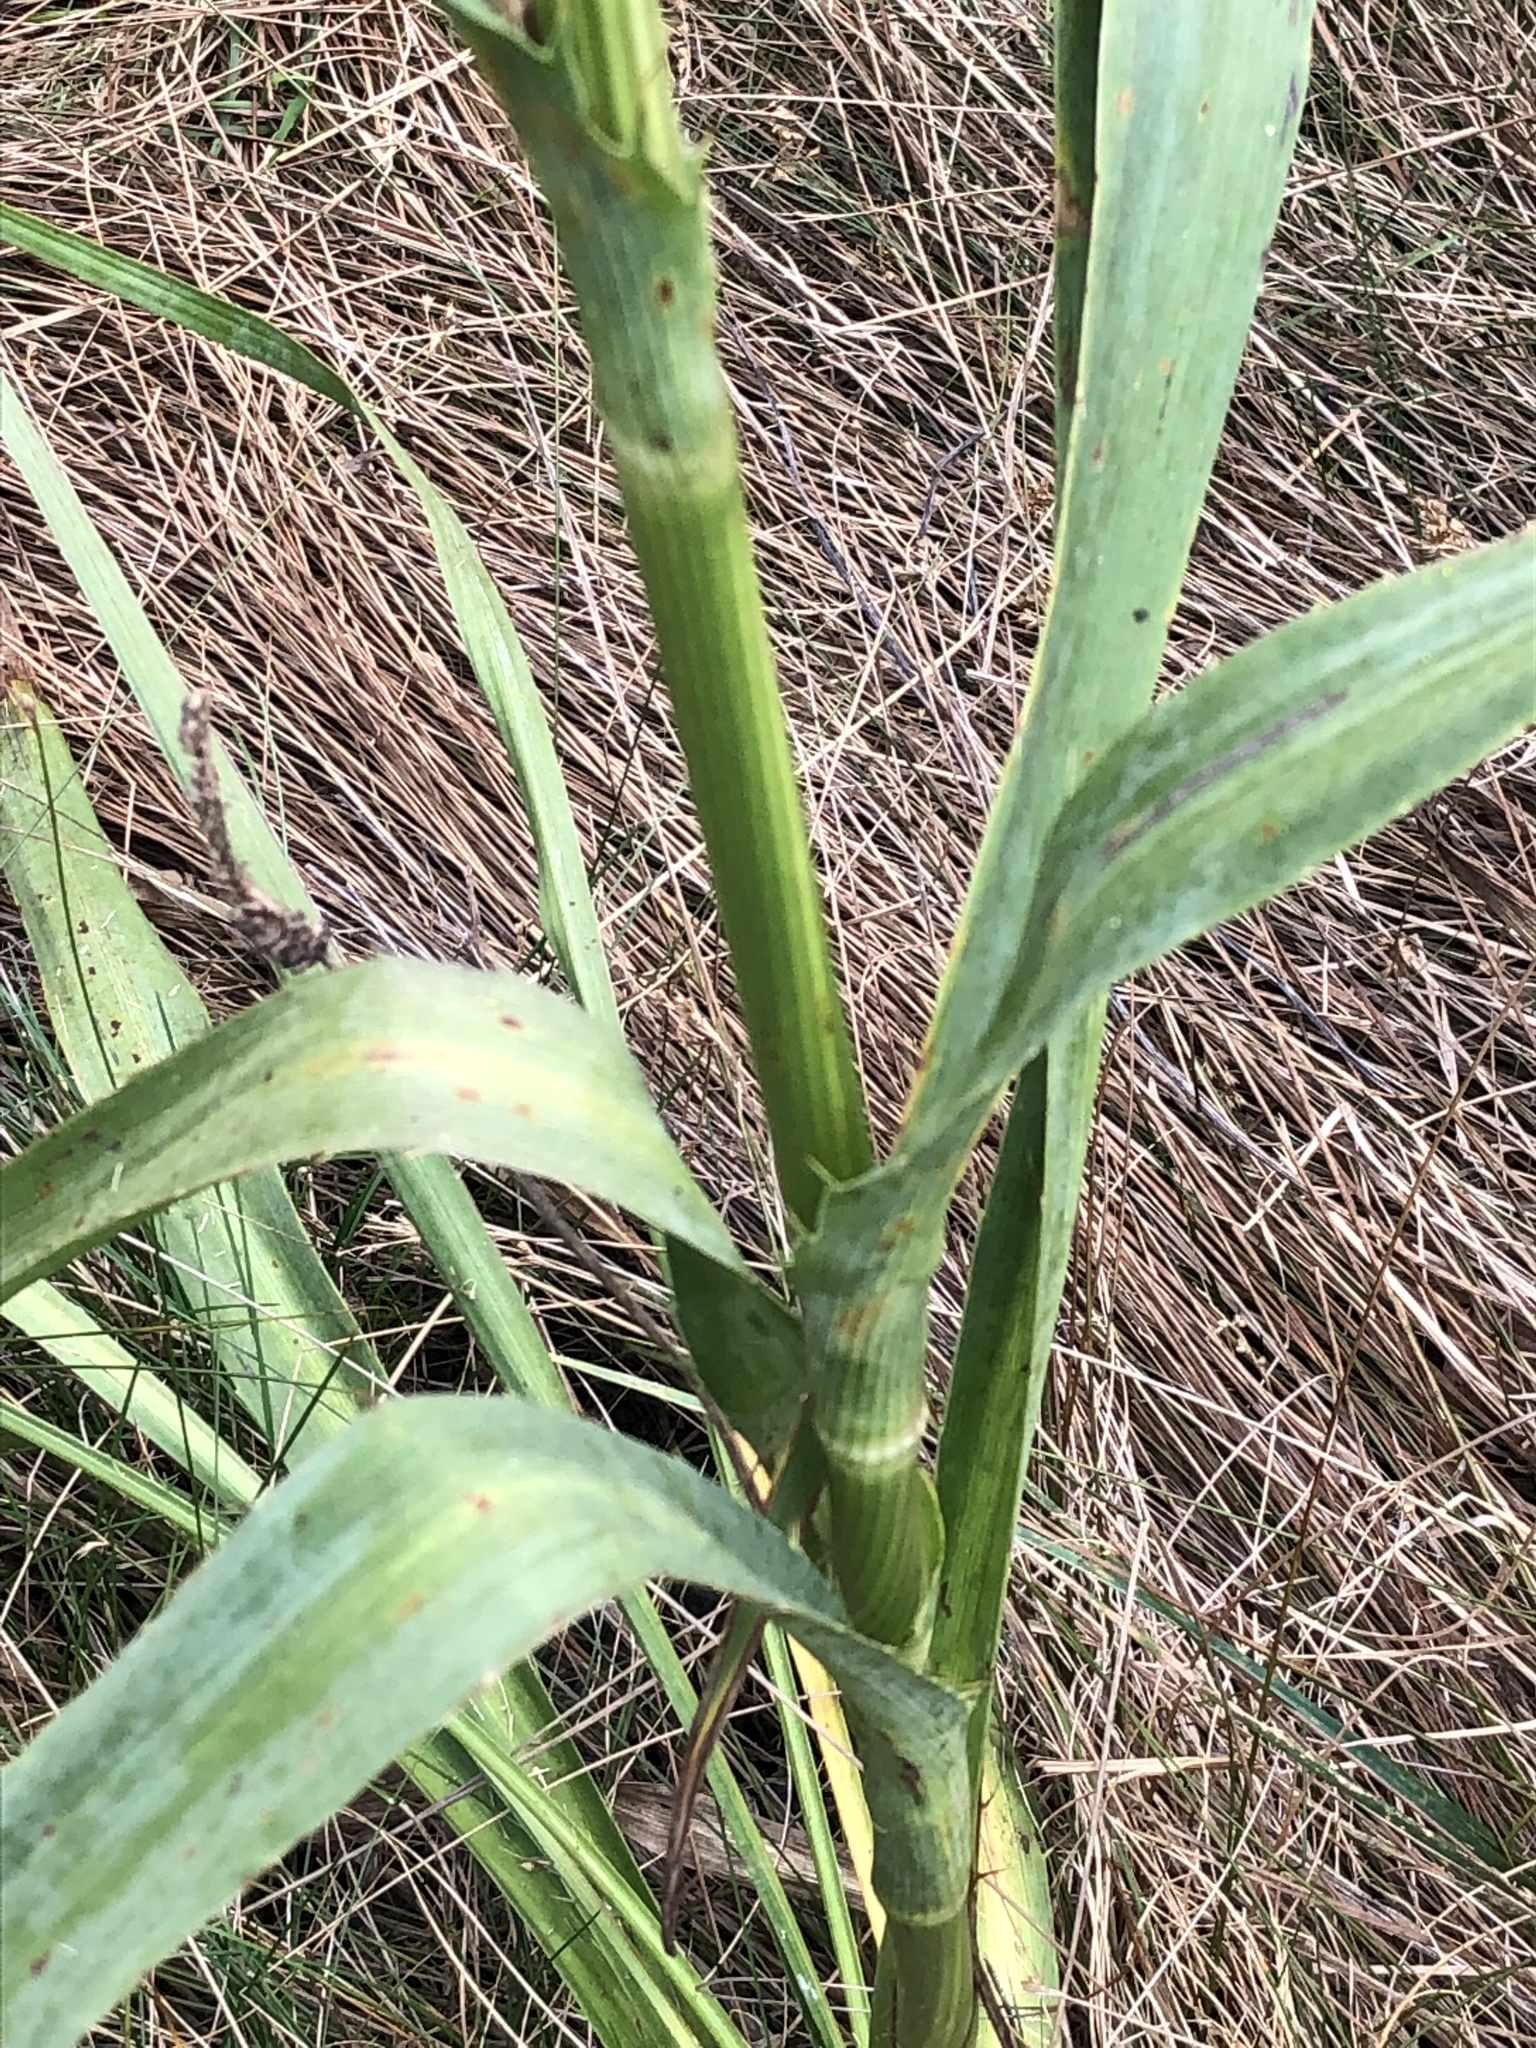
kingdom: Plantae
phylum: Tracheophyta
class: Magnoliopsida
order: Apiales
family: Apiaceae
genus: Eryngium
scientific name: Eryngium yuccifolium
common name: Button eryngo
